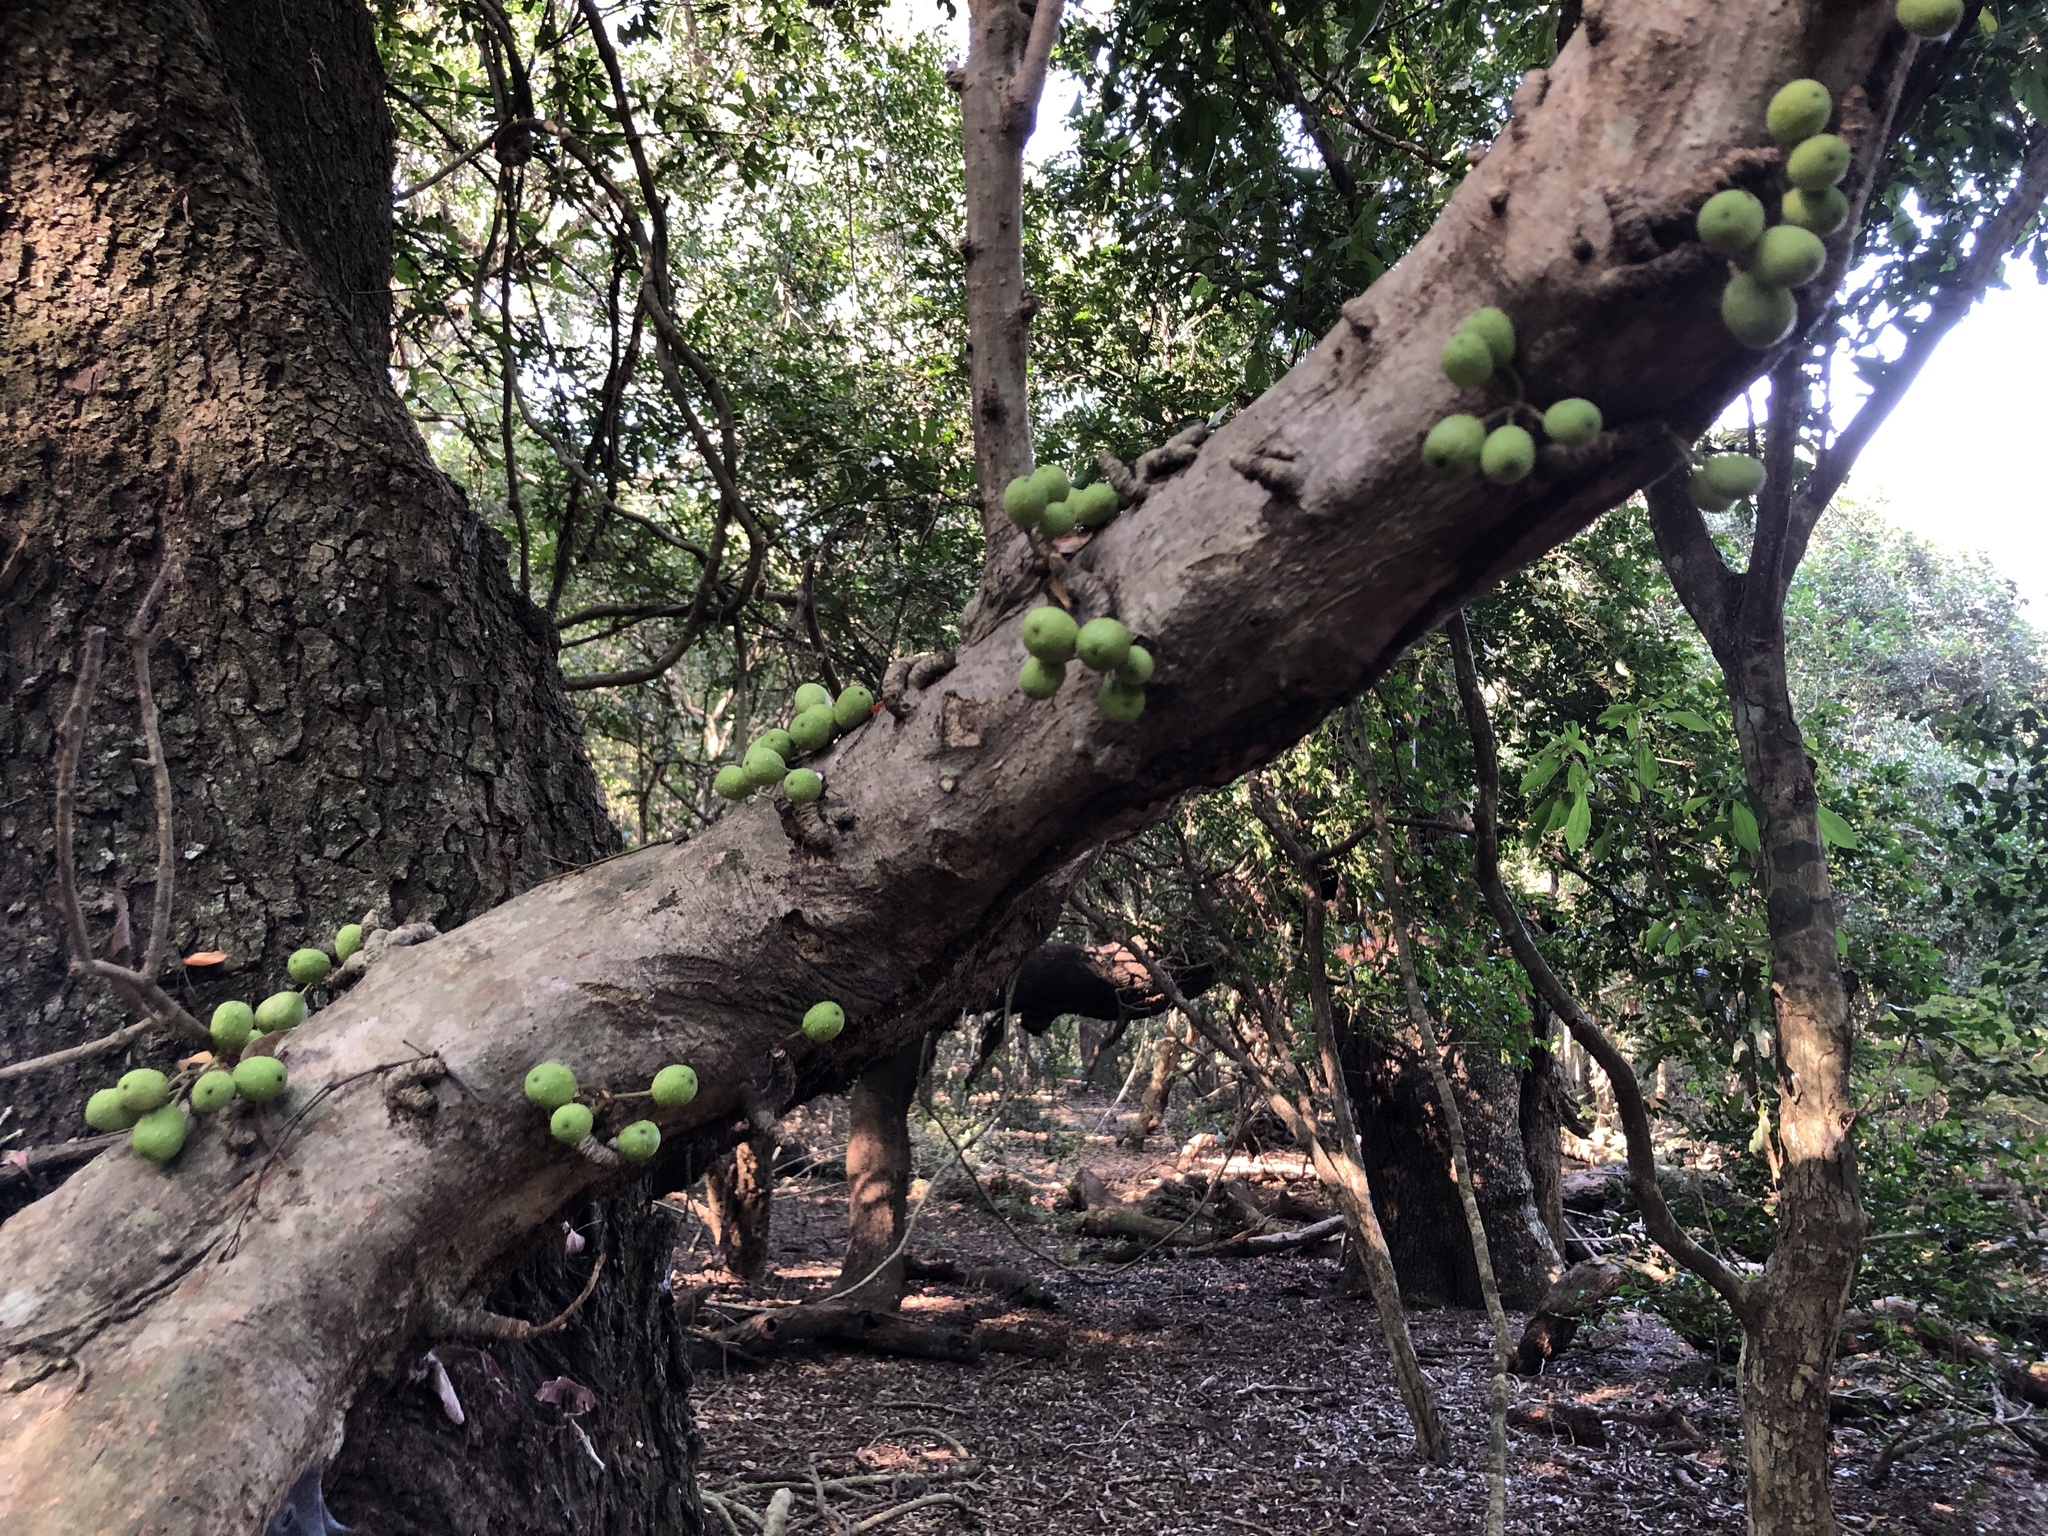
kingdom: Plantae
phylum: Tracheophyta
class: Magnoliopsida
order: Rosales
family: Moraceae
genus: Ficus
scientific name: Ficus polita
